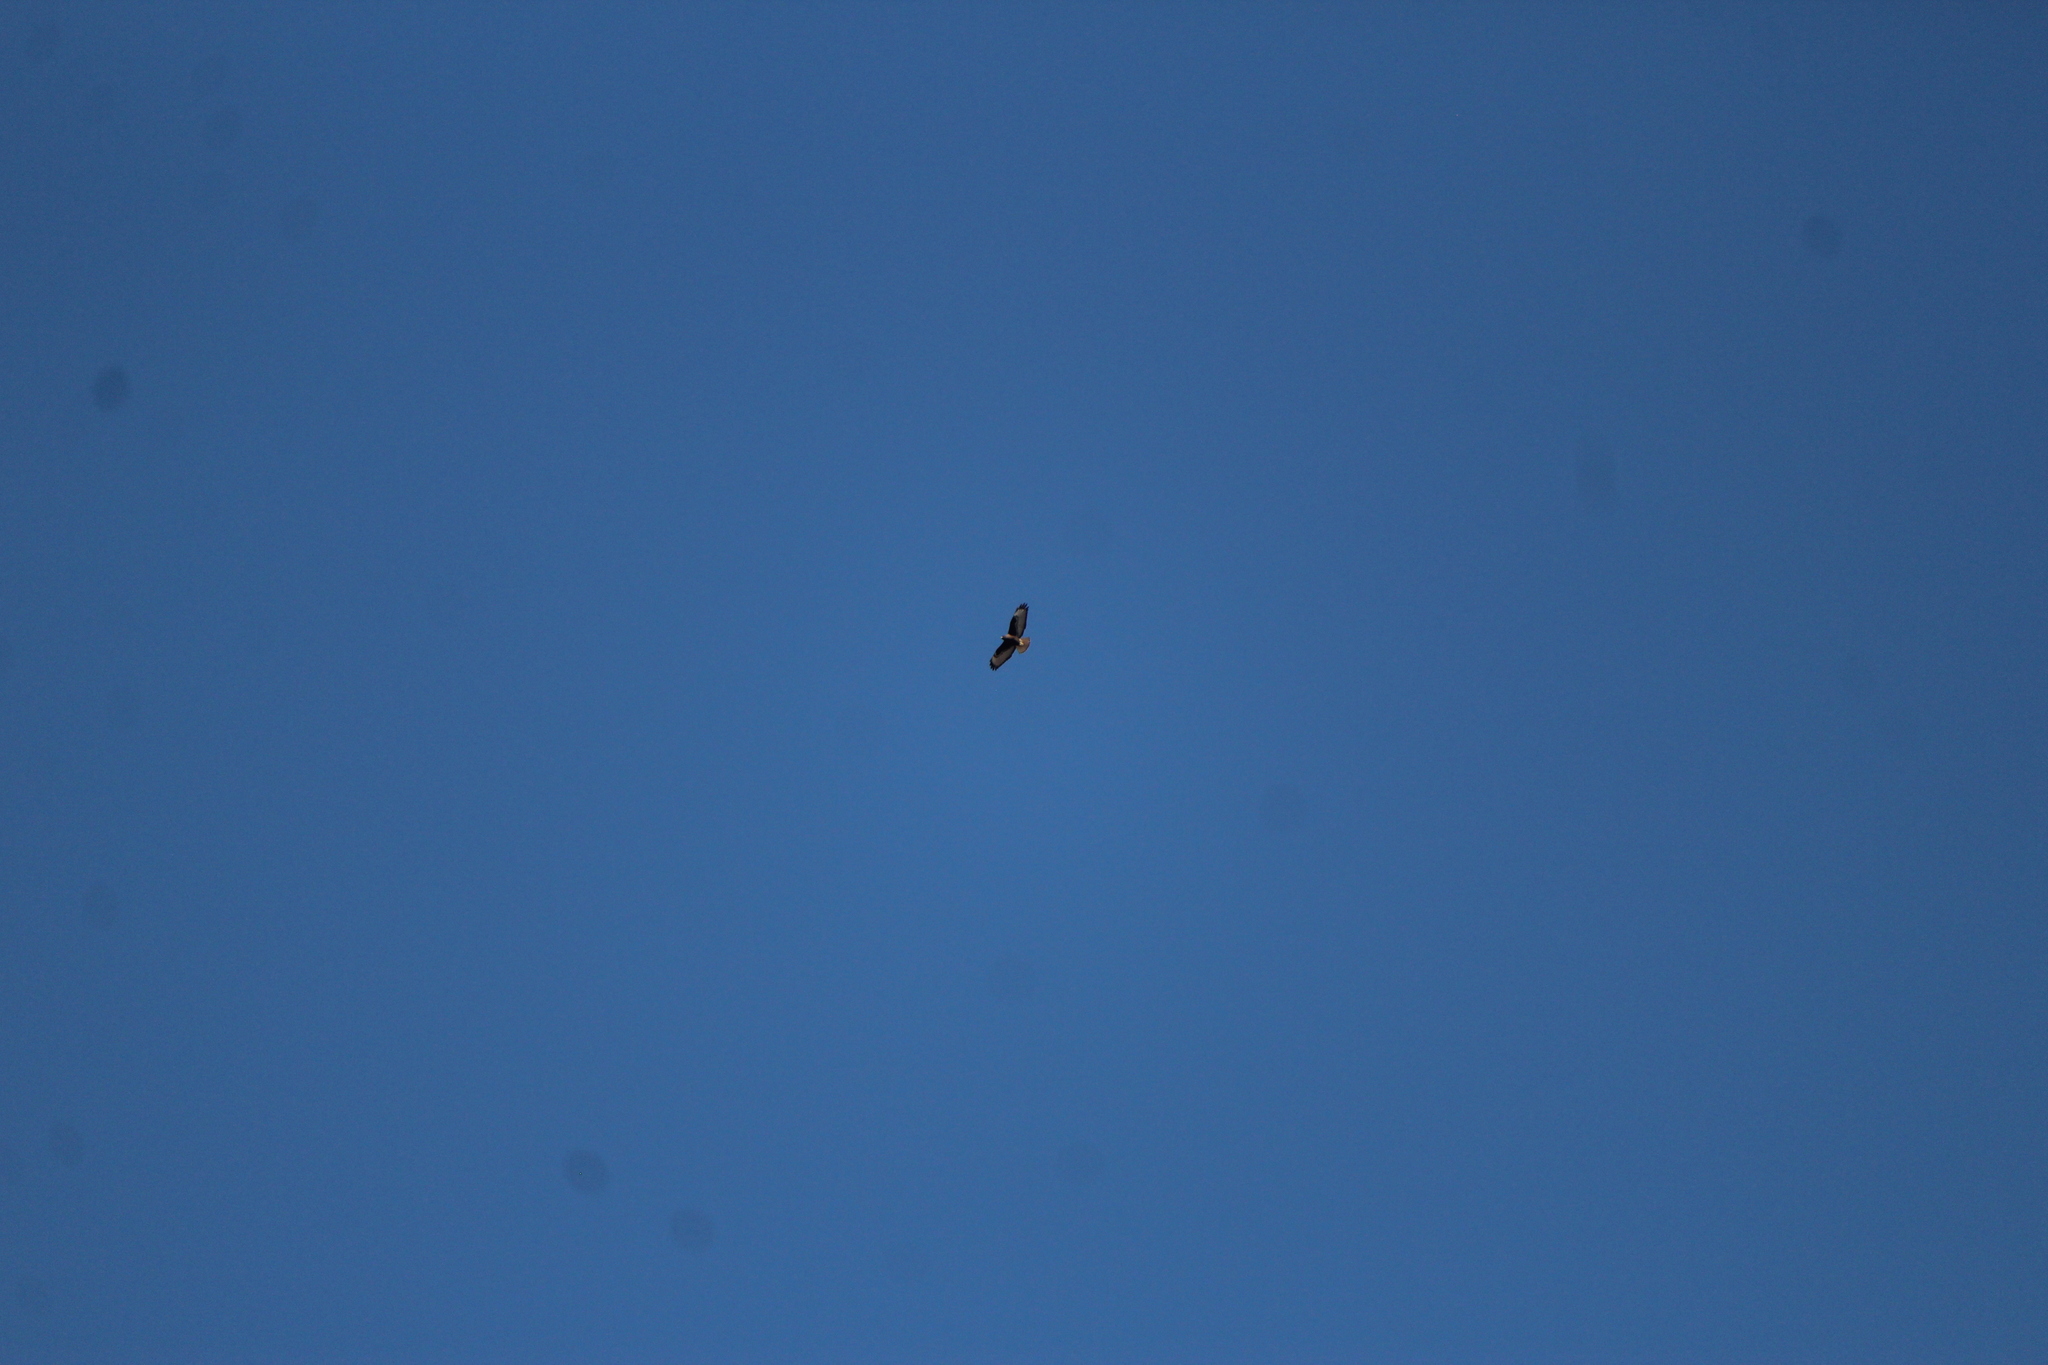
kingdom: Animalia
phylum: Chordata
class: Aves
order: Accipitriformes
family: Accipitridae
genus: Buteo
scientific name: Buteo jamaicensis
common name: Red-tailed hawk
